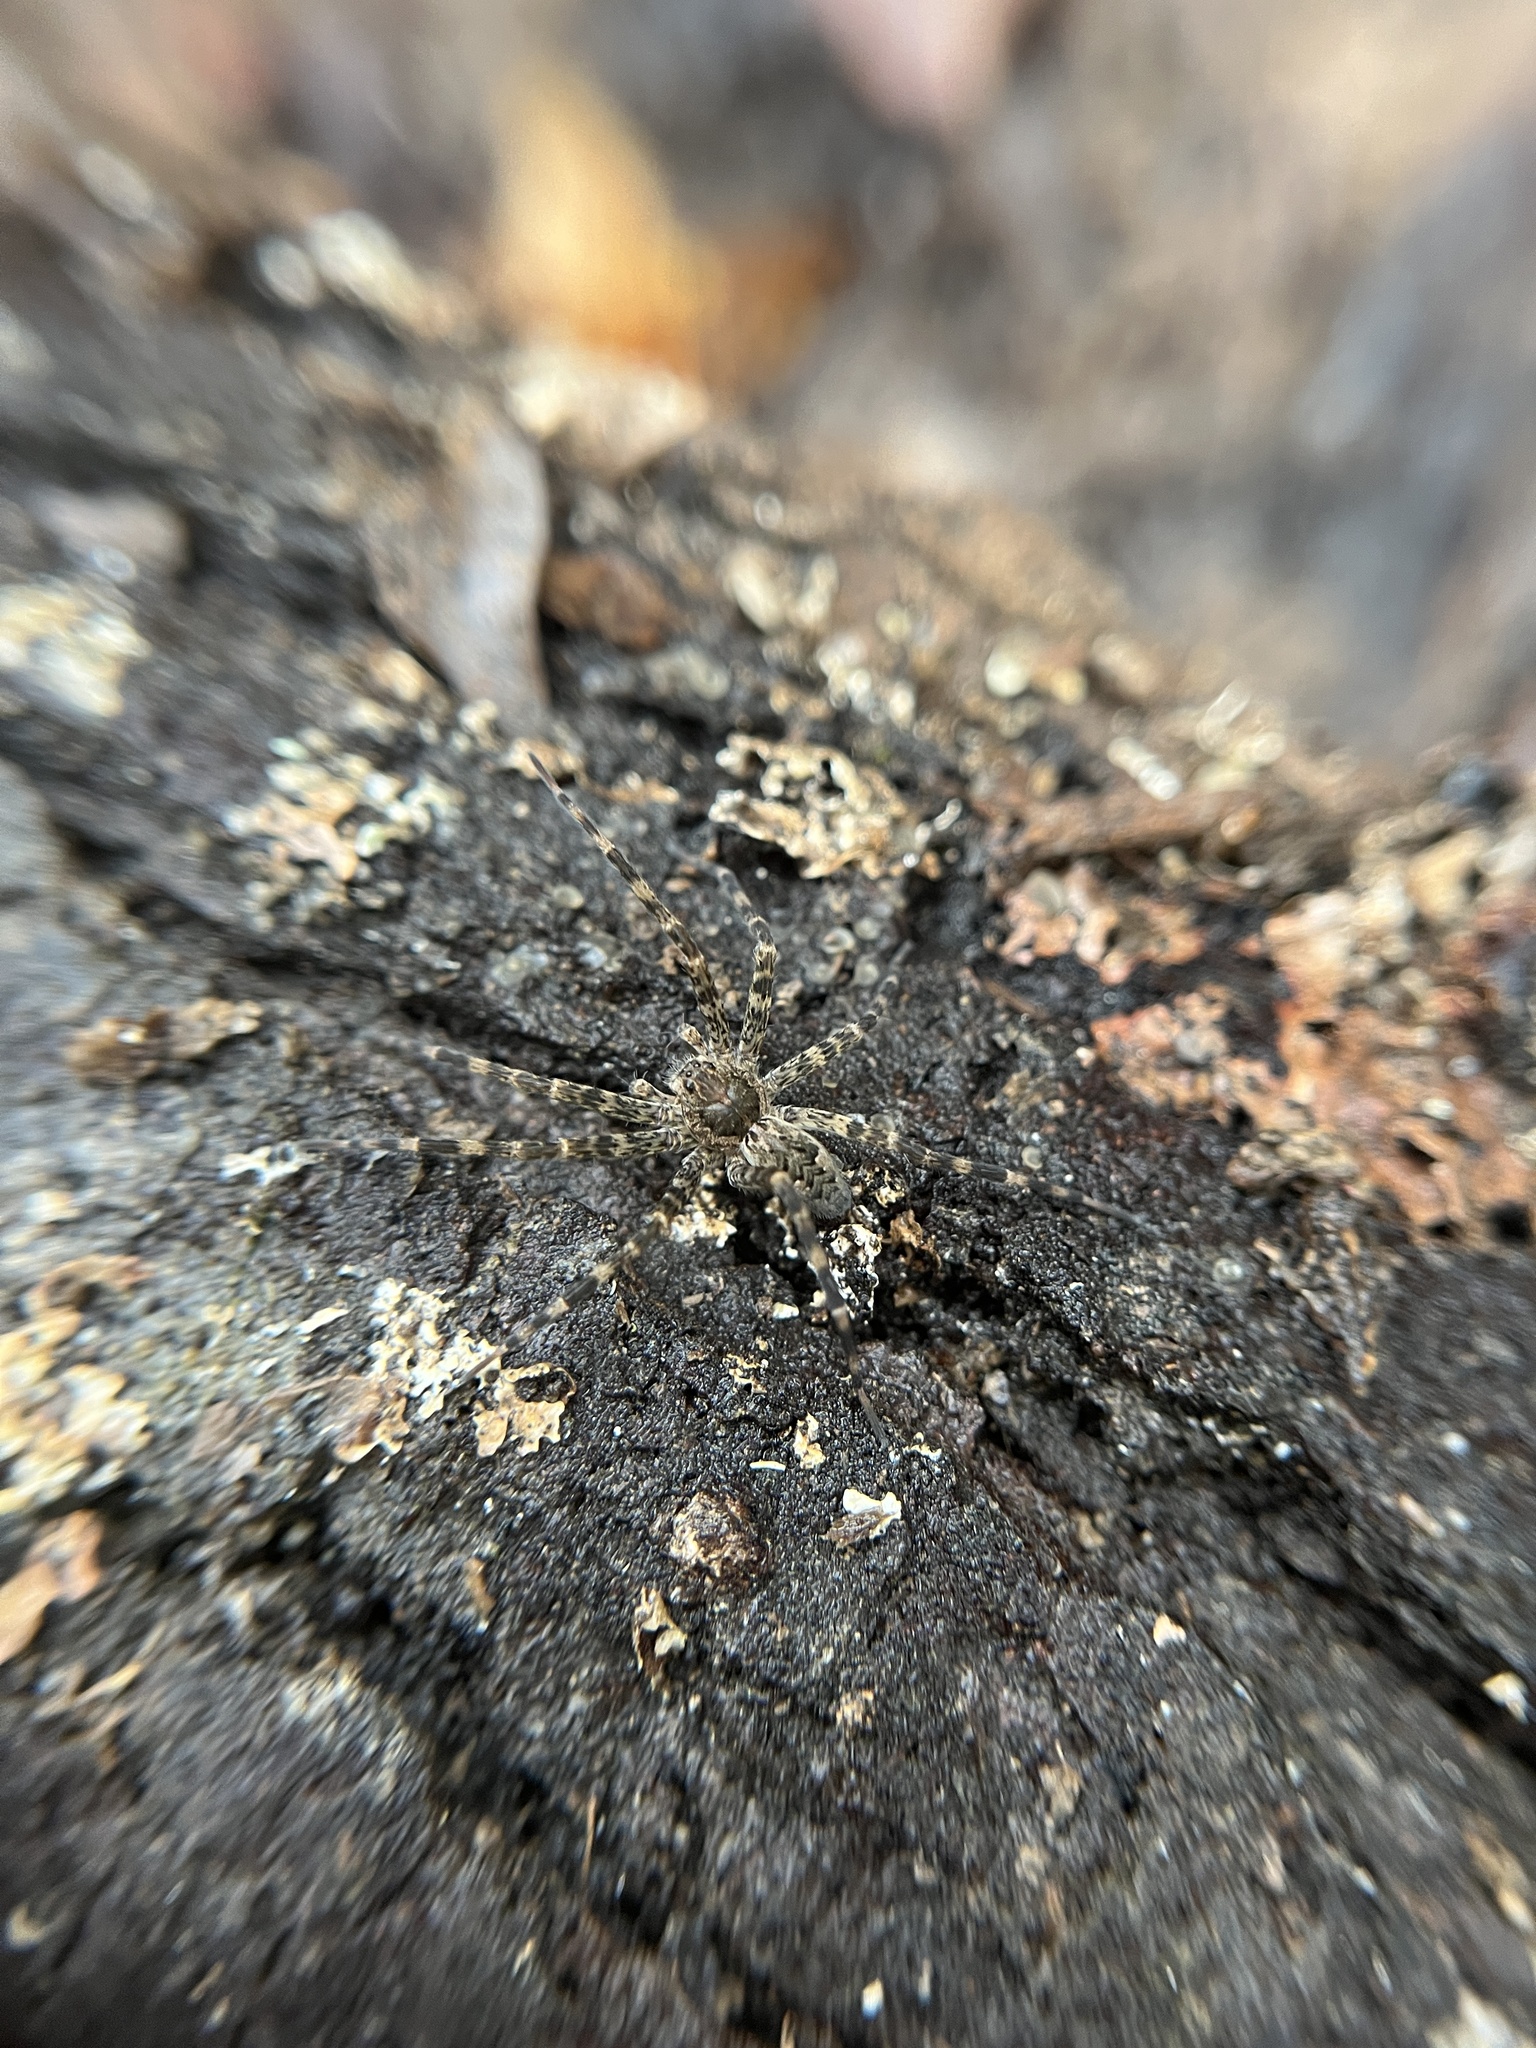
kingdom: Animalia
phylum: Arthropoda
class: Arachnida
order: Araneae
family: Pisauridae
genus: Dolomedes
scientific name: Dolomedes tenebrosus
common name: Dark fishing spider
